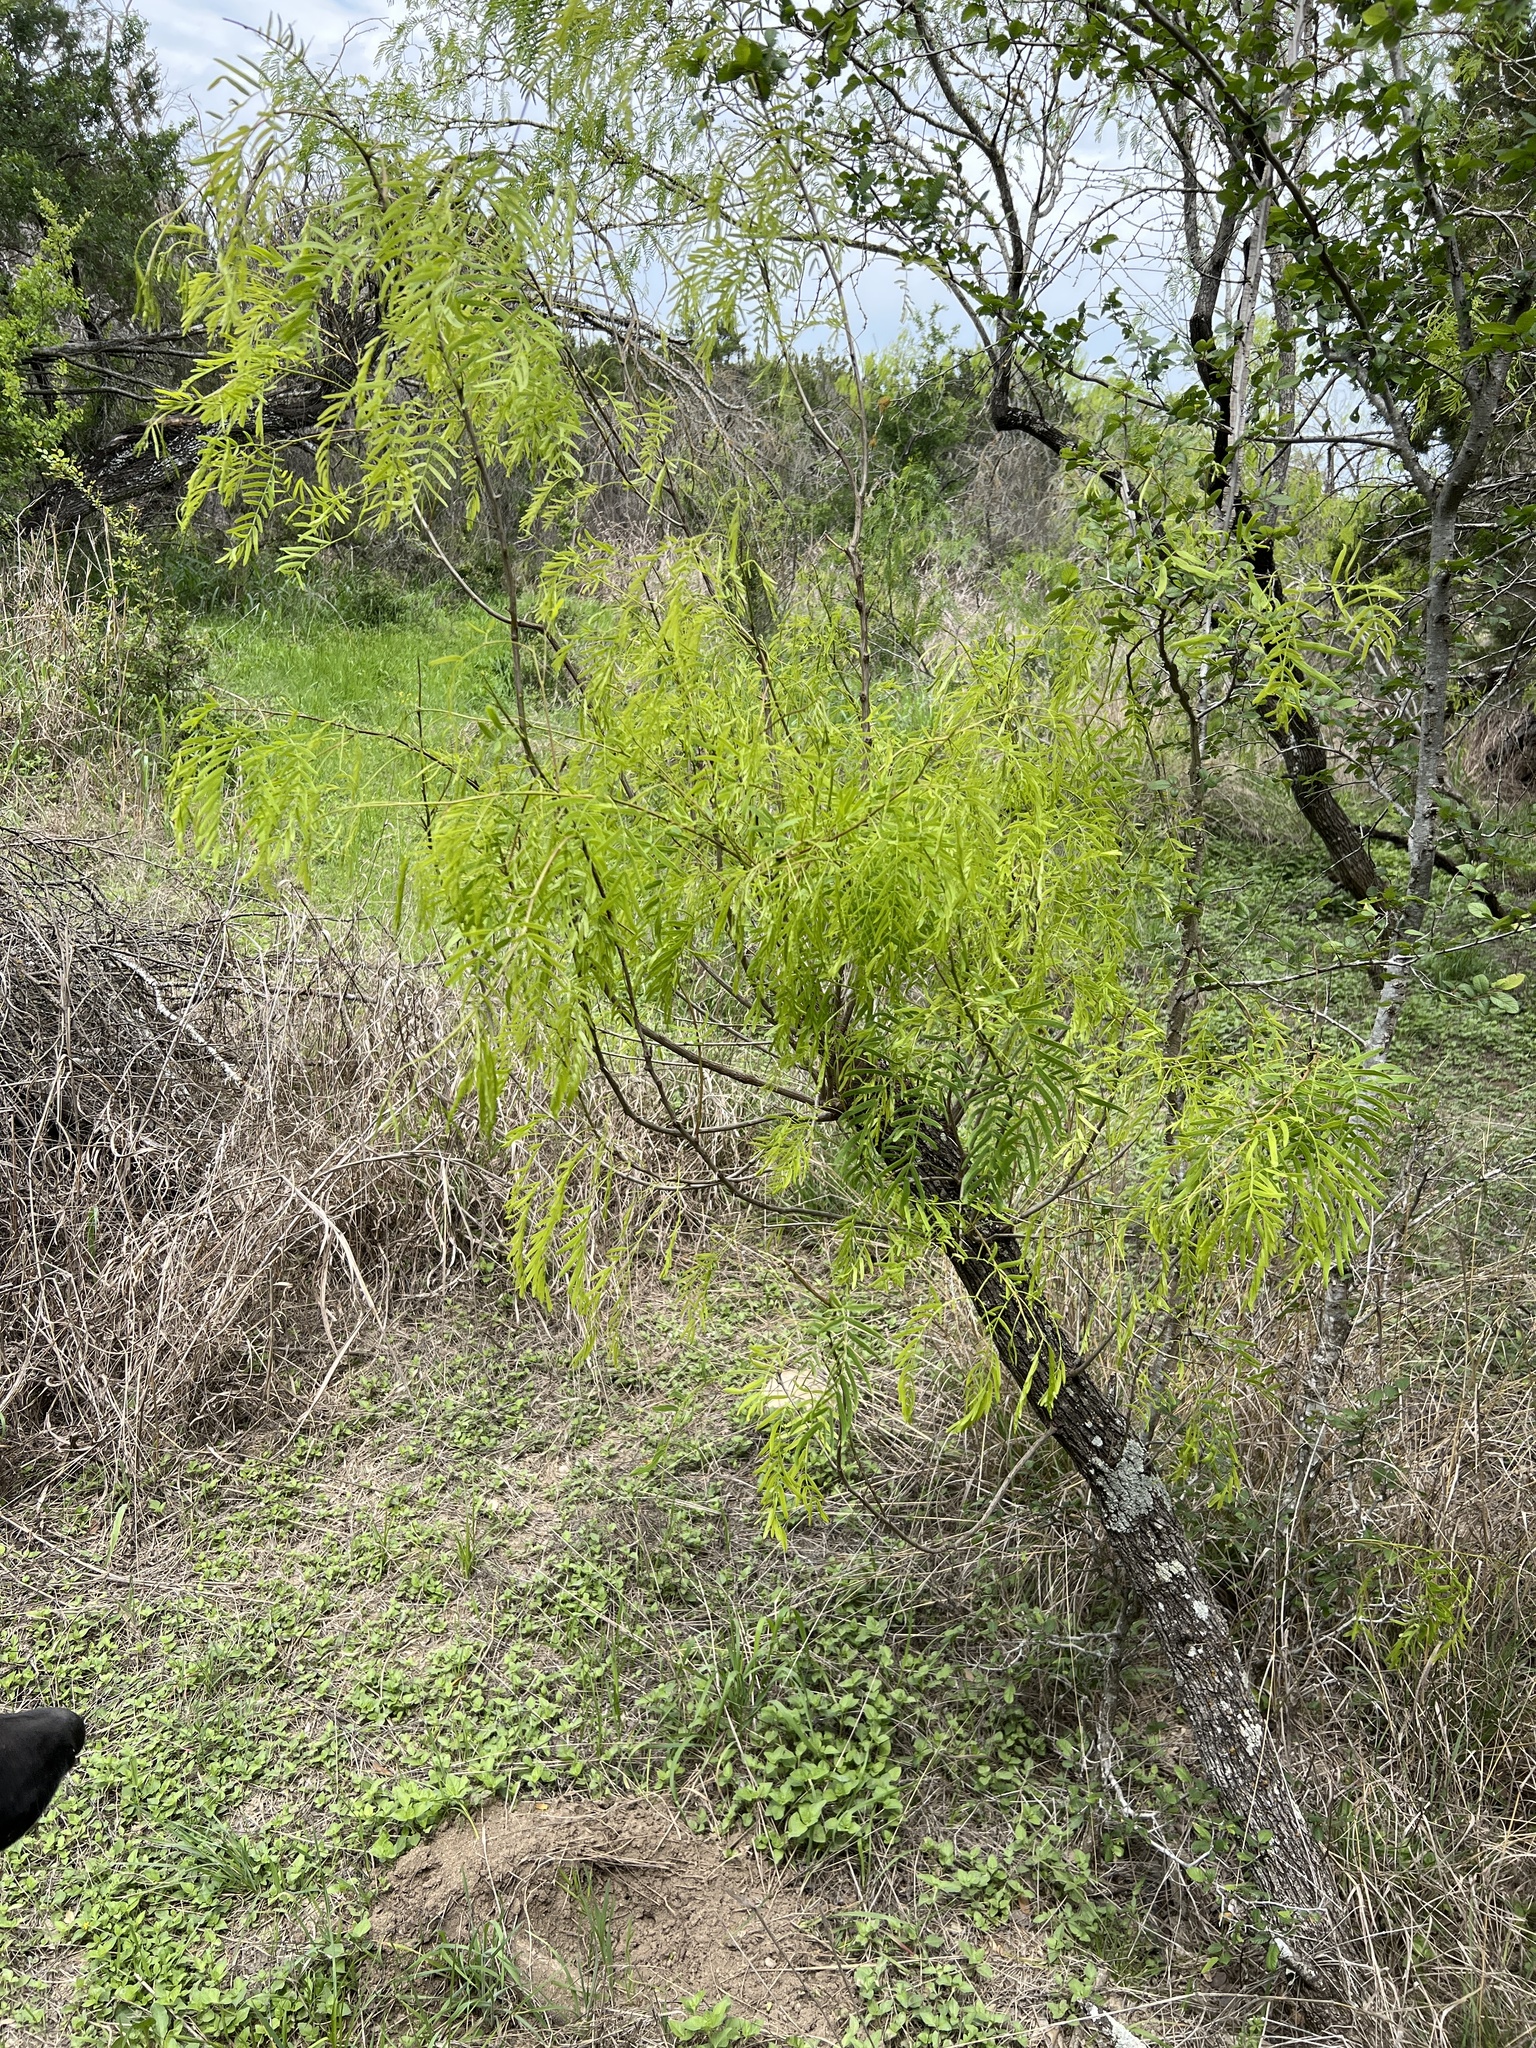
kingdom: Plantae
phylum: Tracheophyta
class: Magnoliopsida
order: Fabales
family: Fabaceae
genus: Prosopis
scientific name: Prosopis glandulosa
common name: Honey mesquite
